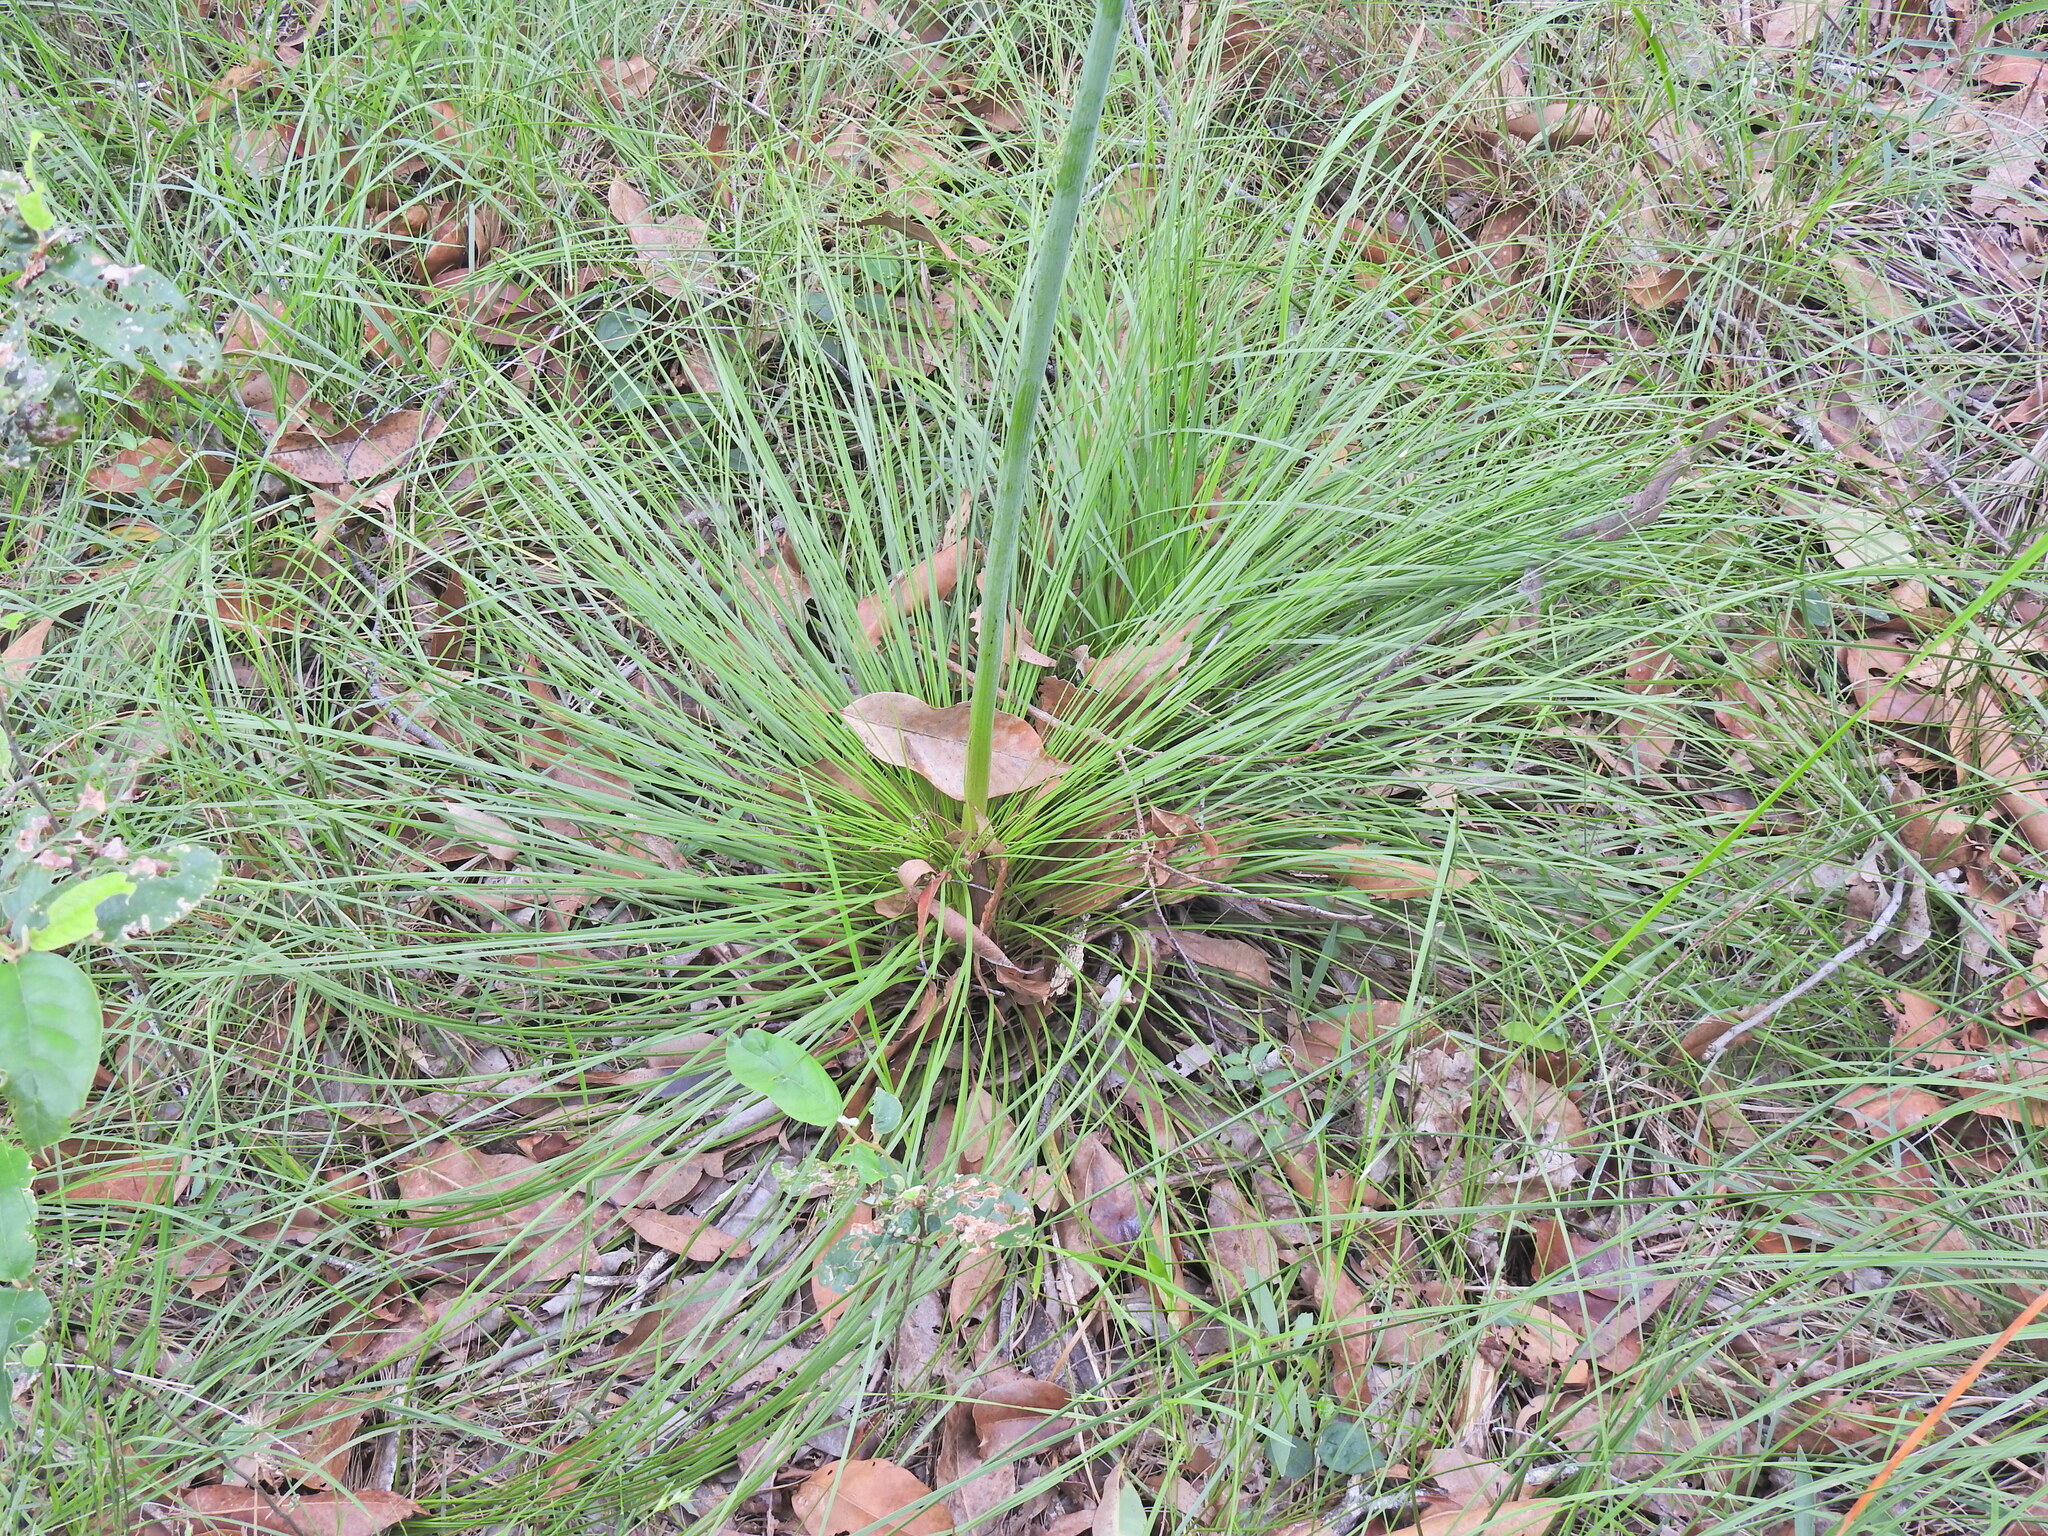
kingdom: Plantae
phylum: Tracheophyta
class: Liliopsida
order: Asparagales
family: Asphodelaceae
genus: Xanthorrhoea
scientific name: Xanthorrhoea latifolia
